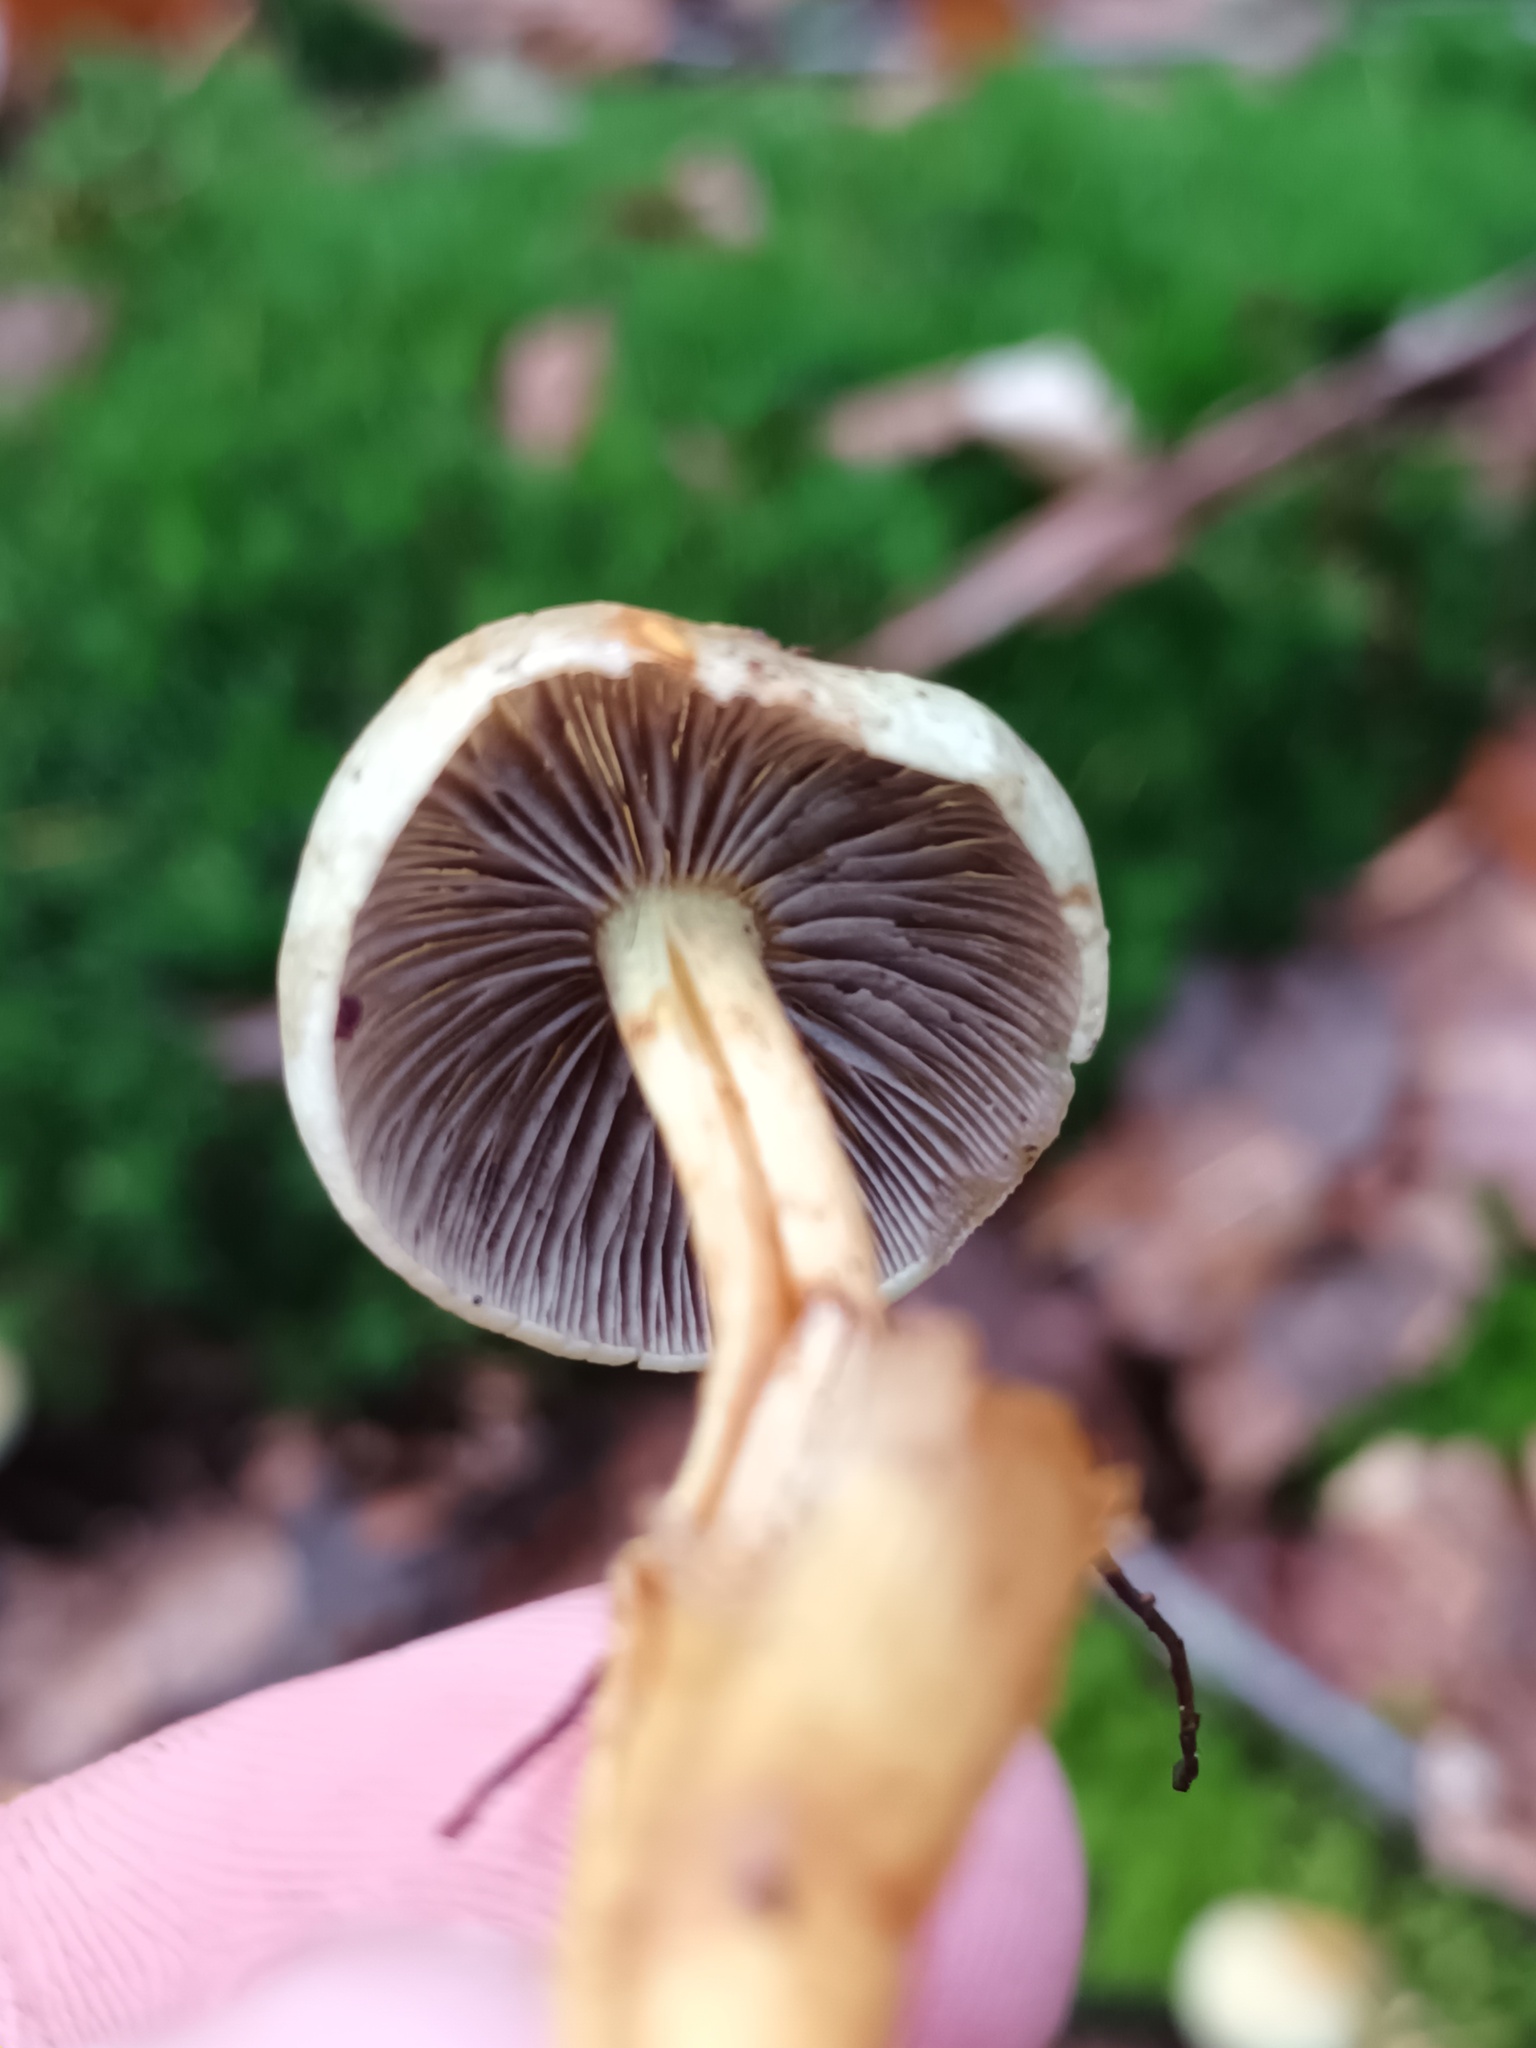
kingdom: Fungi
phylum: Basidiomycota
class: Agaricomycetes
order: Agaricales
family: Strophariaceae
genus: Hypholoma
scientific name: Hypholoma fasciculare
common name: Sulphur tuft
